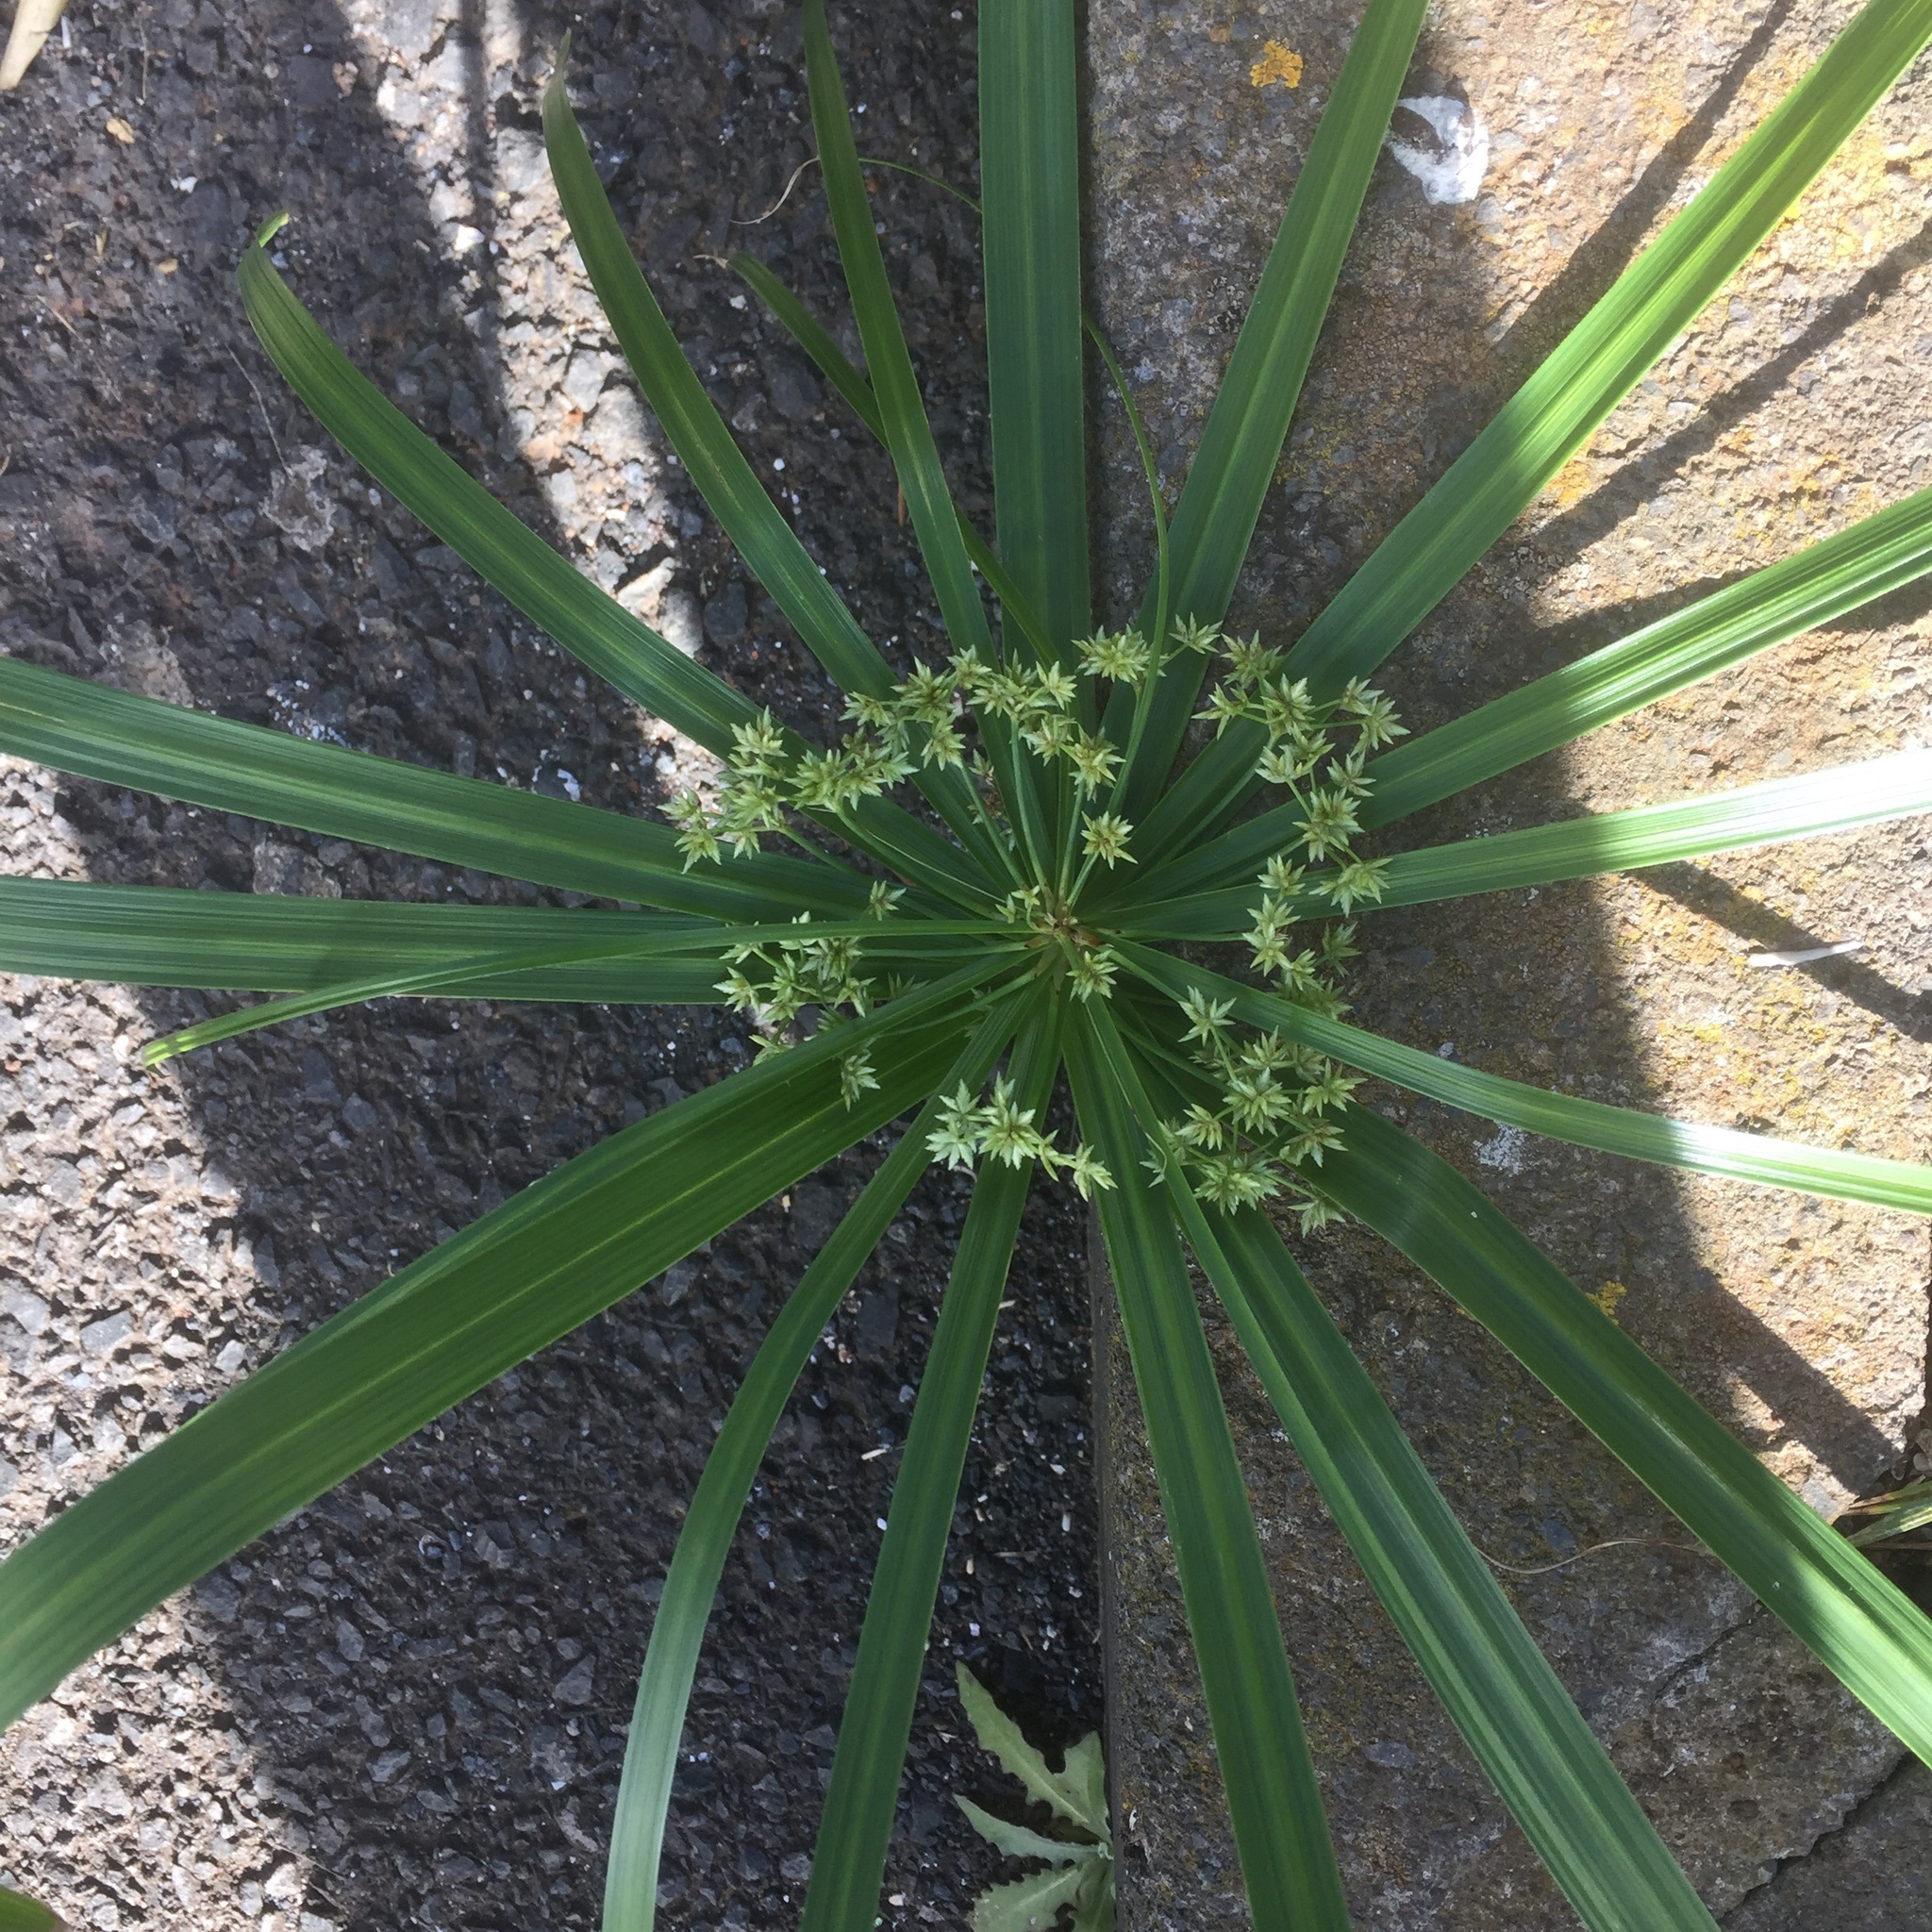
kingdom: Plantae
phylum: Tracheophyta
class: Liliopsida
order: Poales
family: Cyperaceae
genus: Cyperus
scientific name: Cyperus alternifolius
